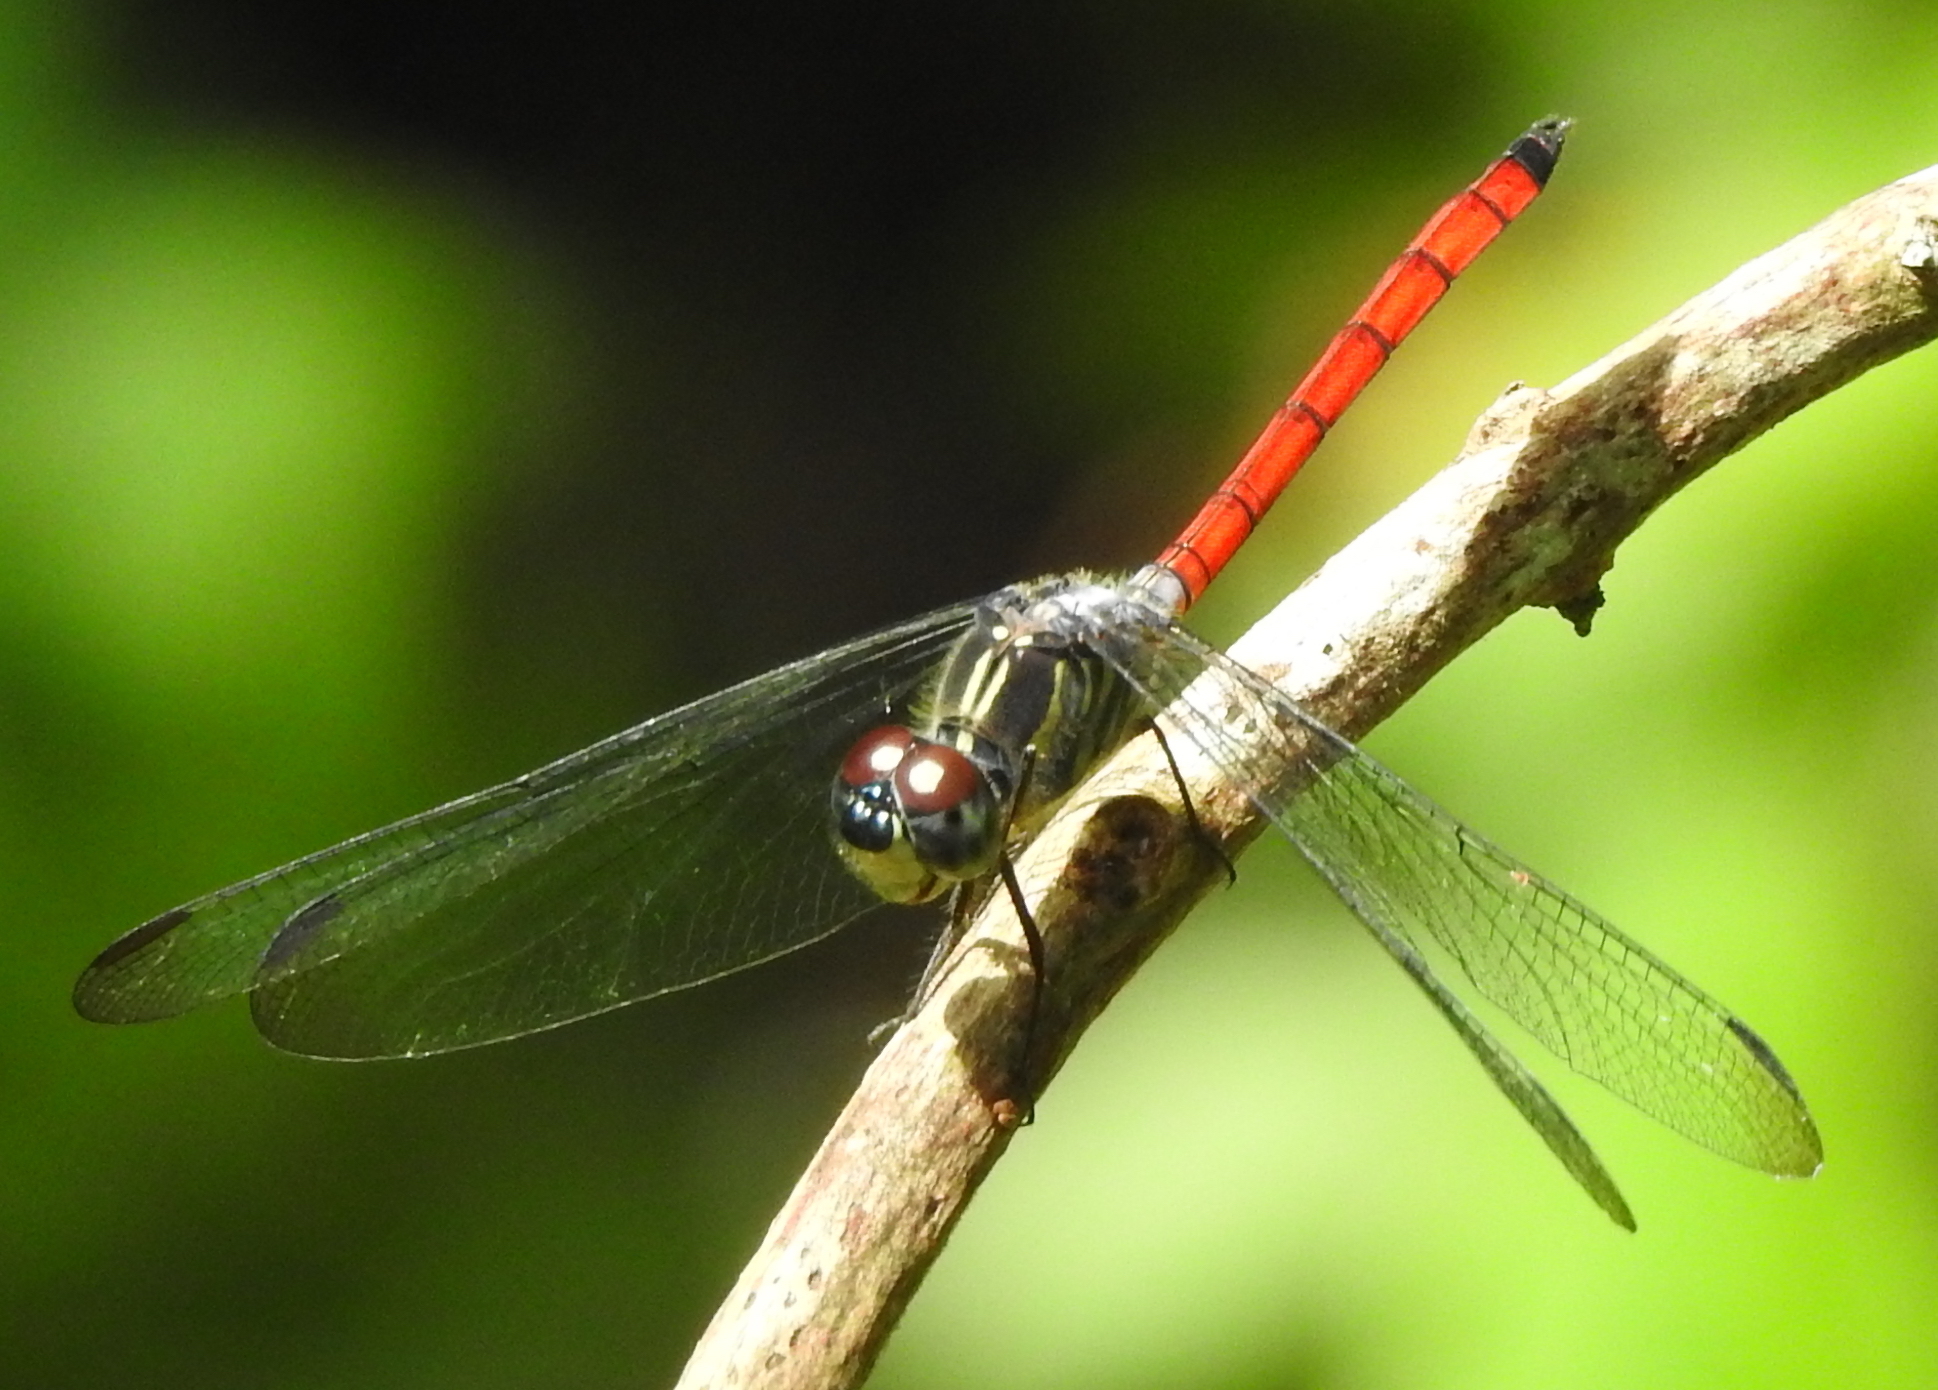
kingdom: Animalia
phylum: Arthropoda
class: Insecta
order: Odonata
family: Libellulidae
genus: Lathrecista
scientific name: Lathrecista asiatica
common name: Scarlet grenadier
